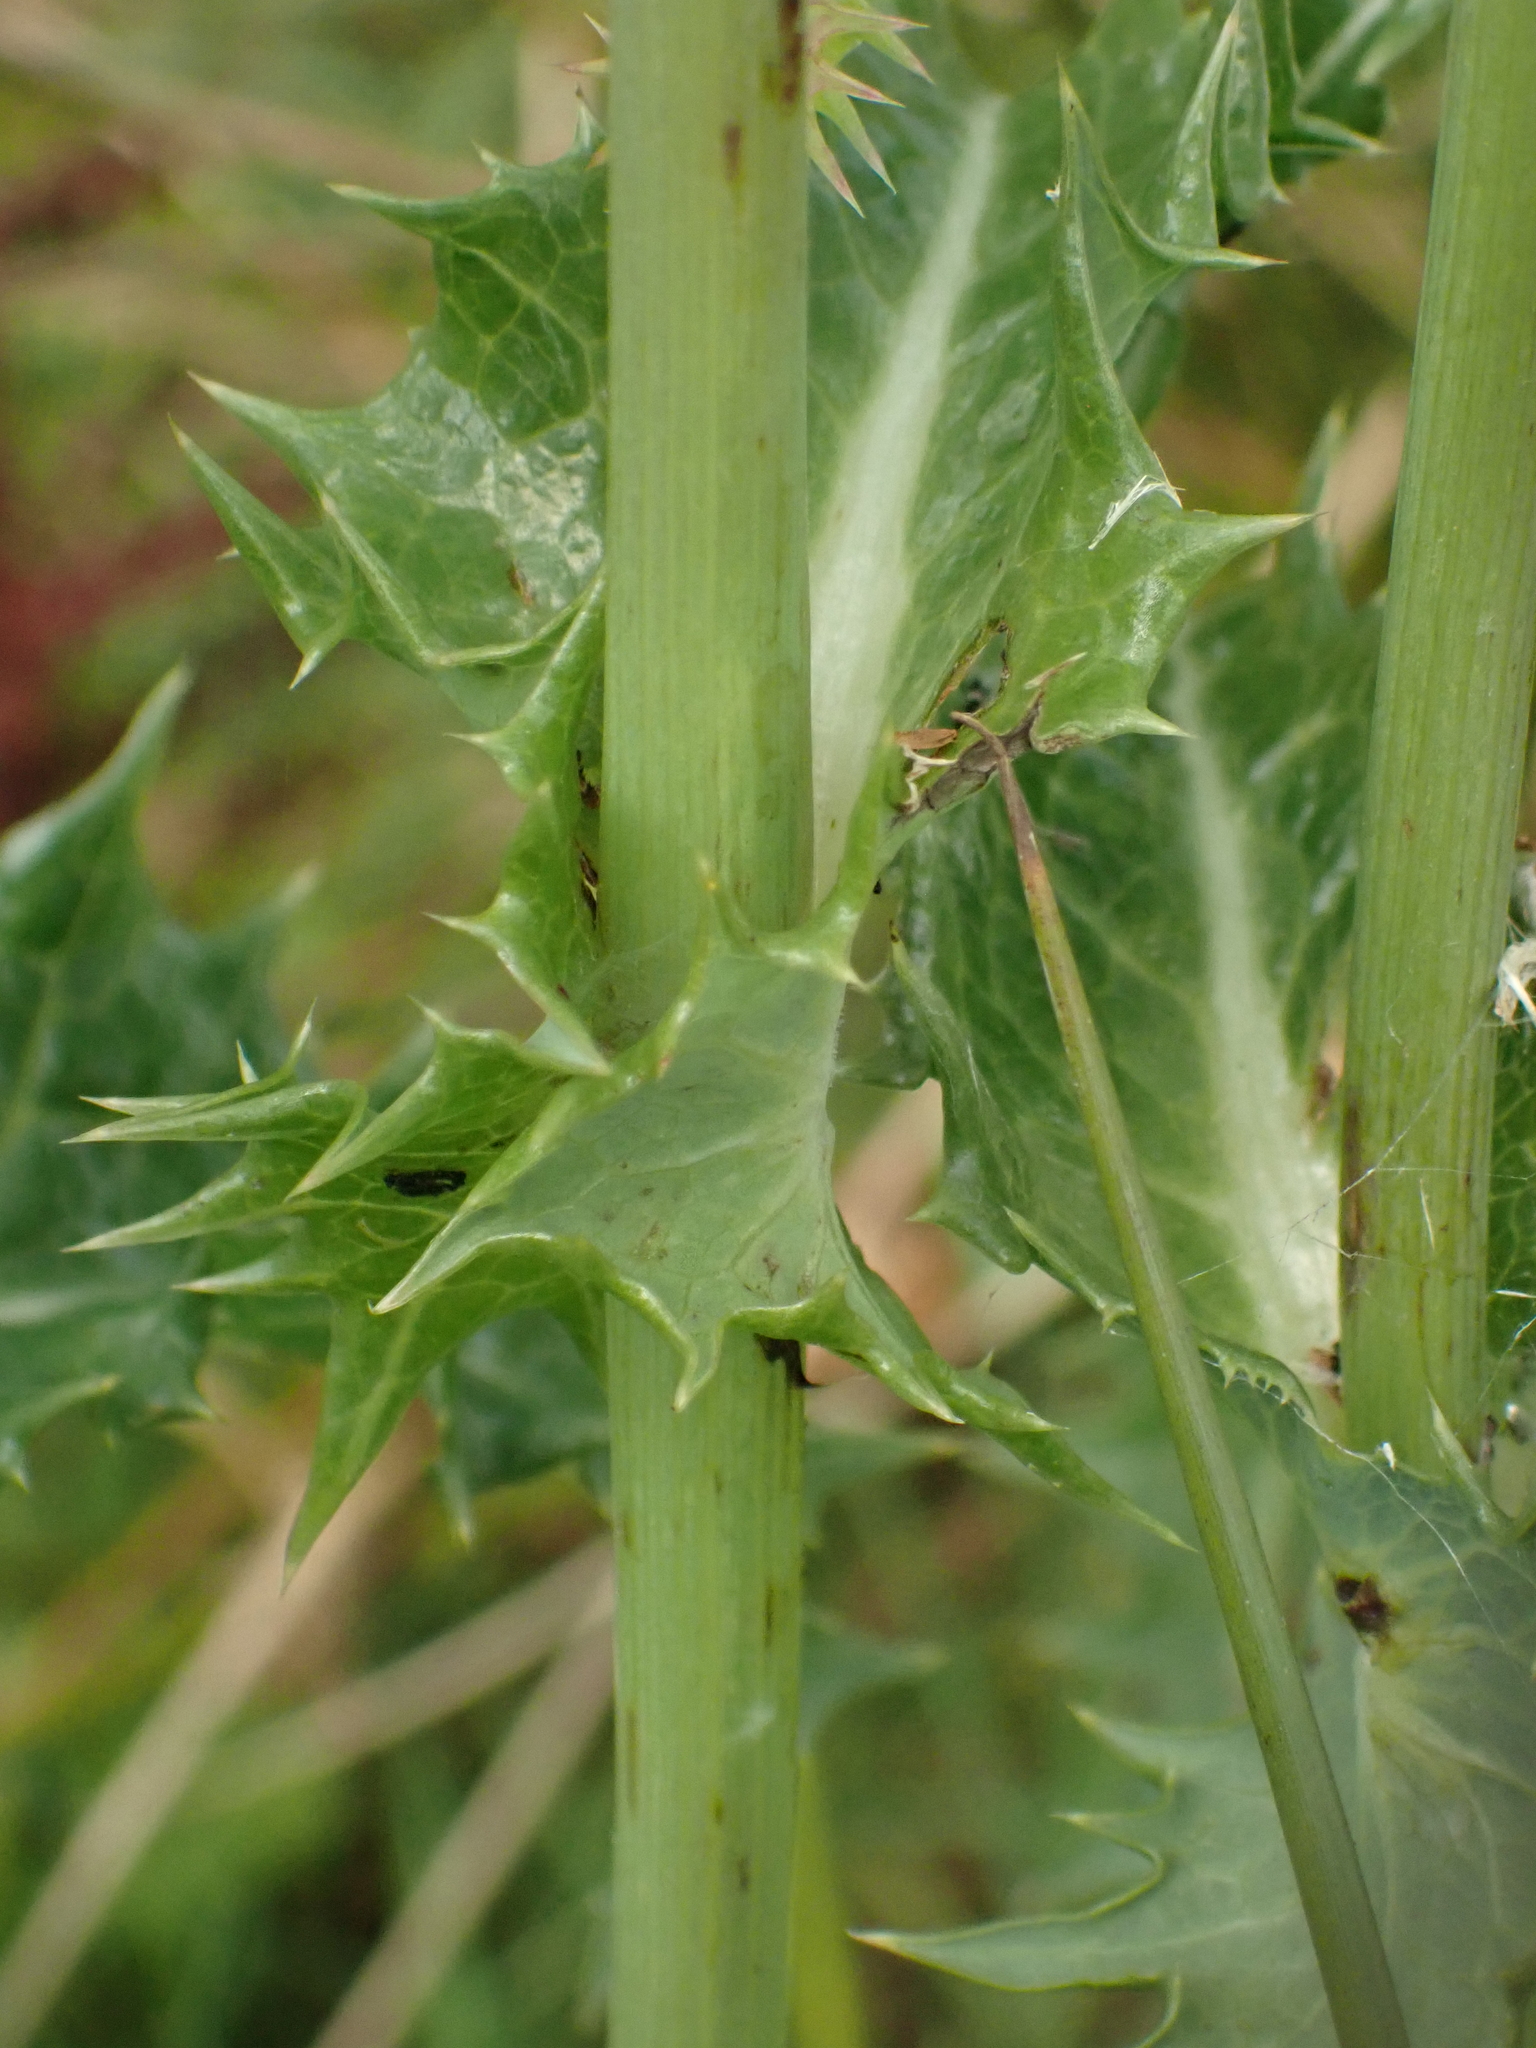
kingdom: Plantae
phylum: Tracheophyta
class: Magnoliopsida
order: Asterales
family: Asteraceae
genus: Sonchus
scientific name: Sonchus asper
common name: Prickly sow-thistle
